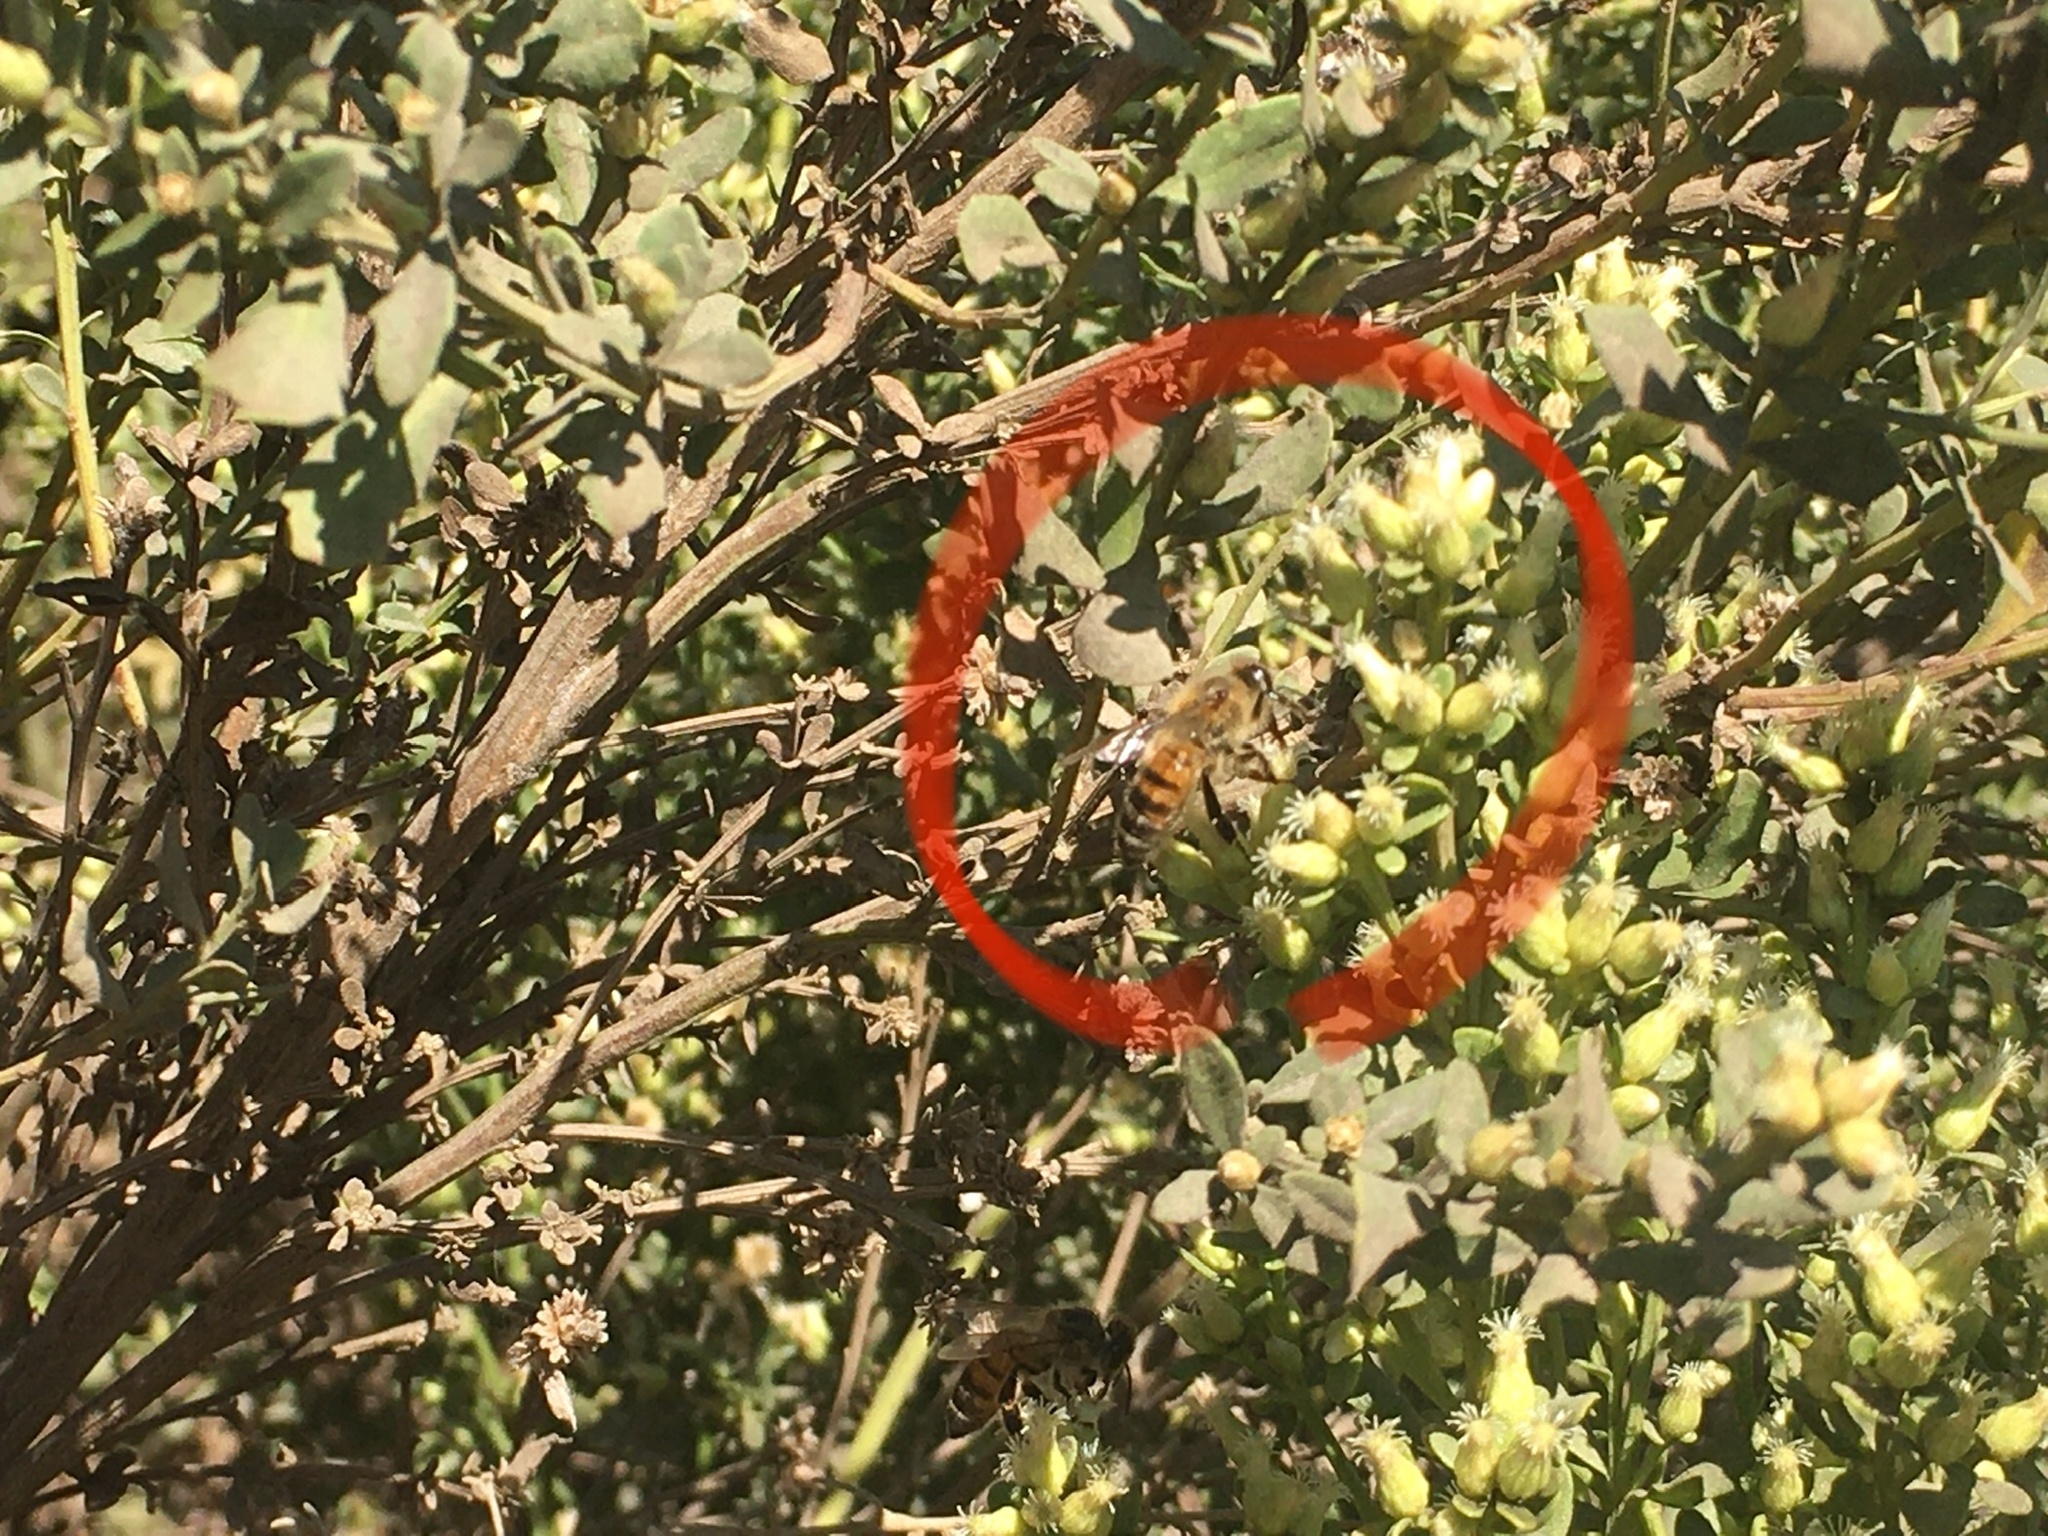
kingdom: Animalia
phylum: Arthropoda
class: Insecta
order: Hymenoptera
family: Apidae
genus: Apis
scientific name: Apis mellifera
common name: Honey bee
